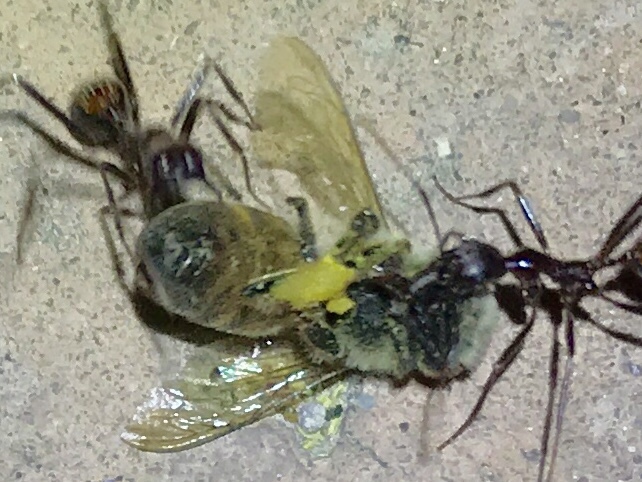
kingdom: Animalia
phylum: Arthropoda
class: Insecta
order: Hymenoptera
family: Apidae
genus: Apis
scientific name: Apis mellifera
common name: Honey bee
